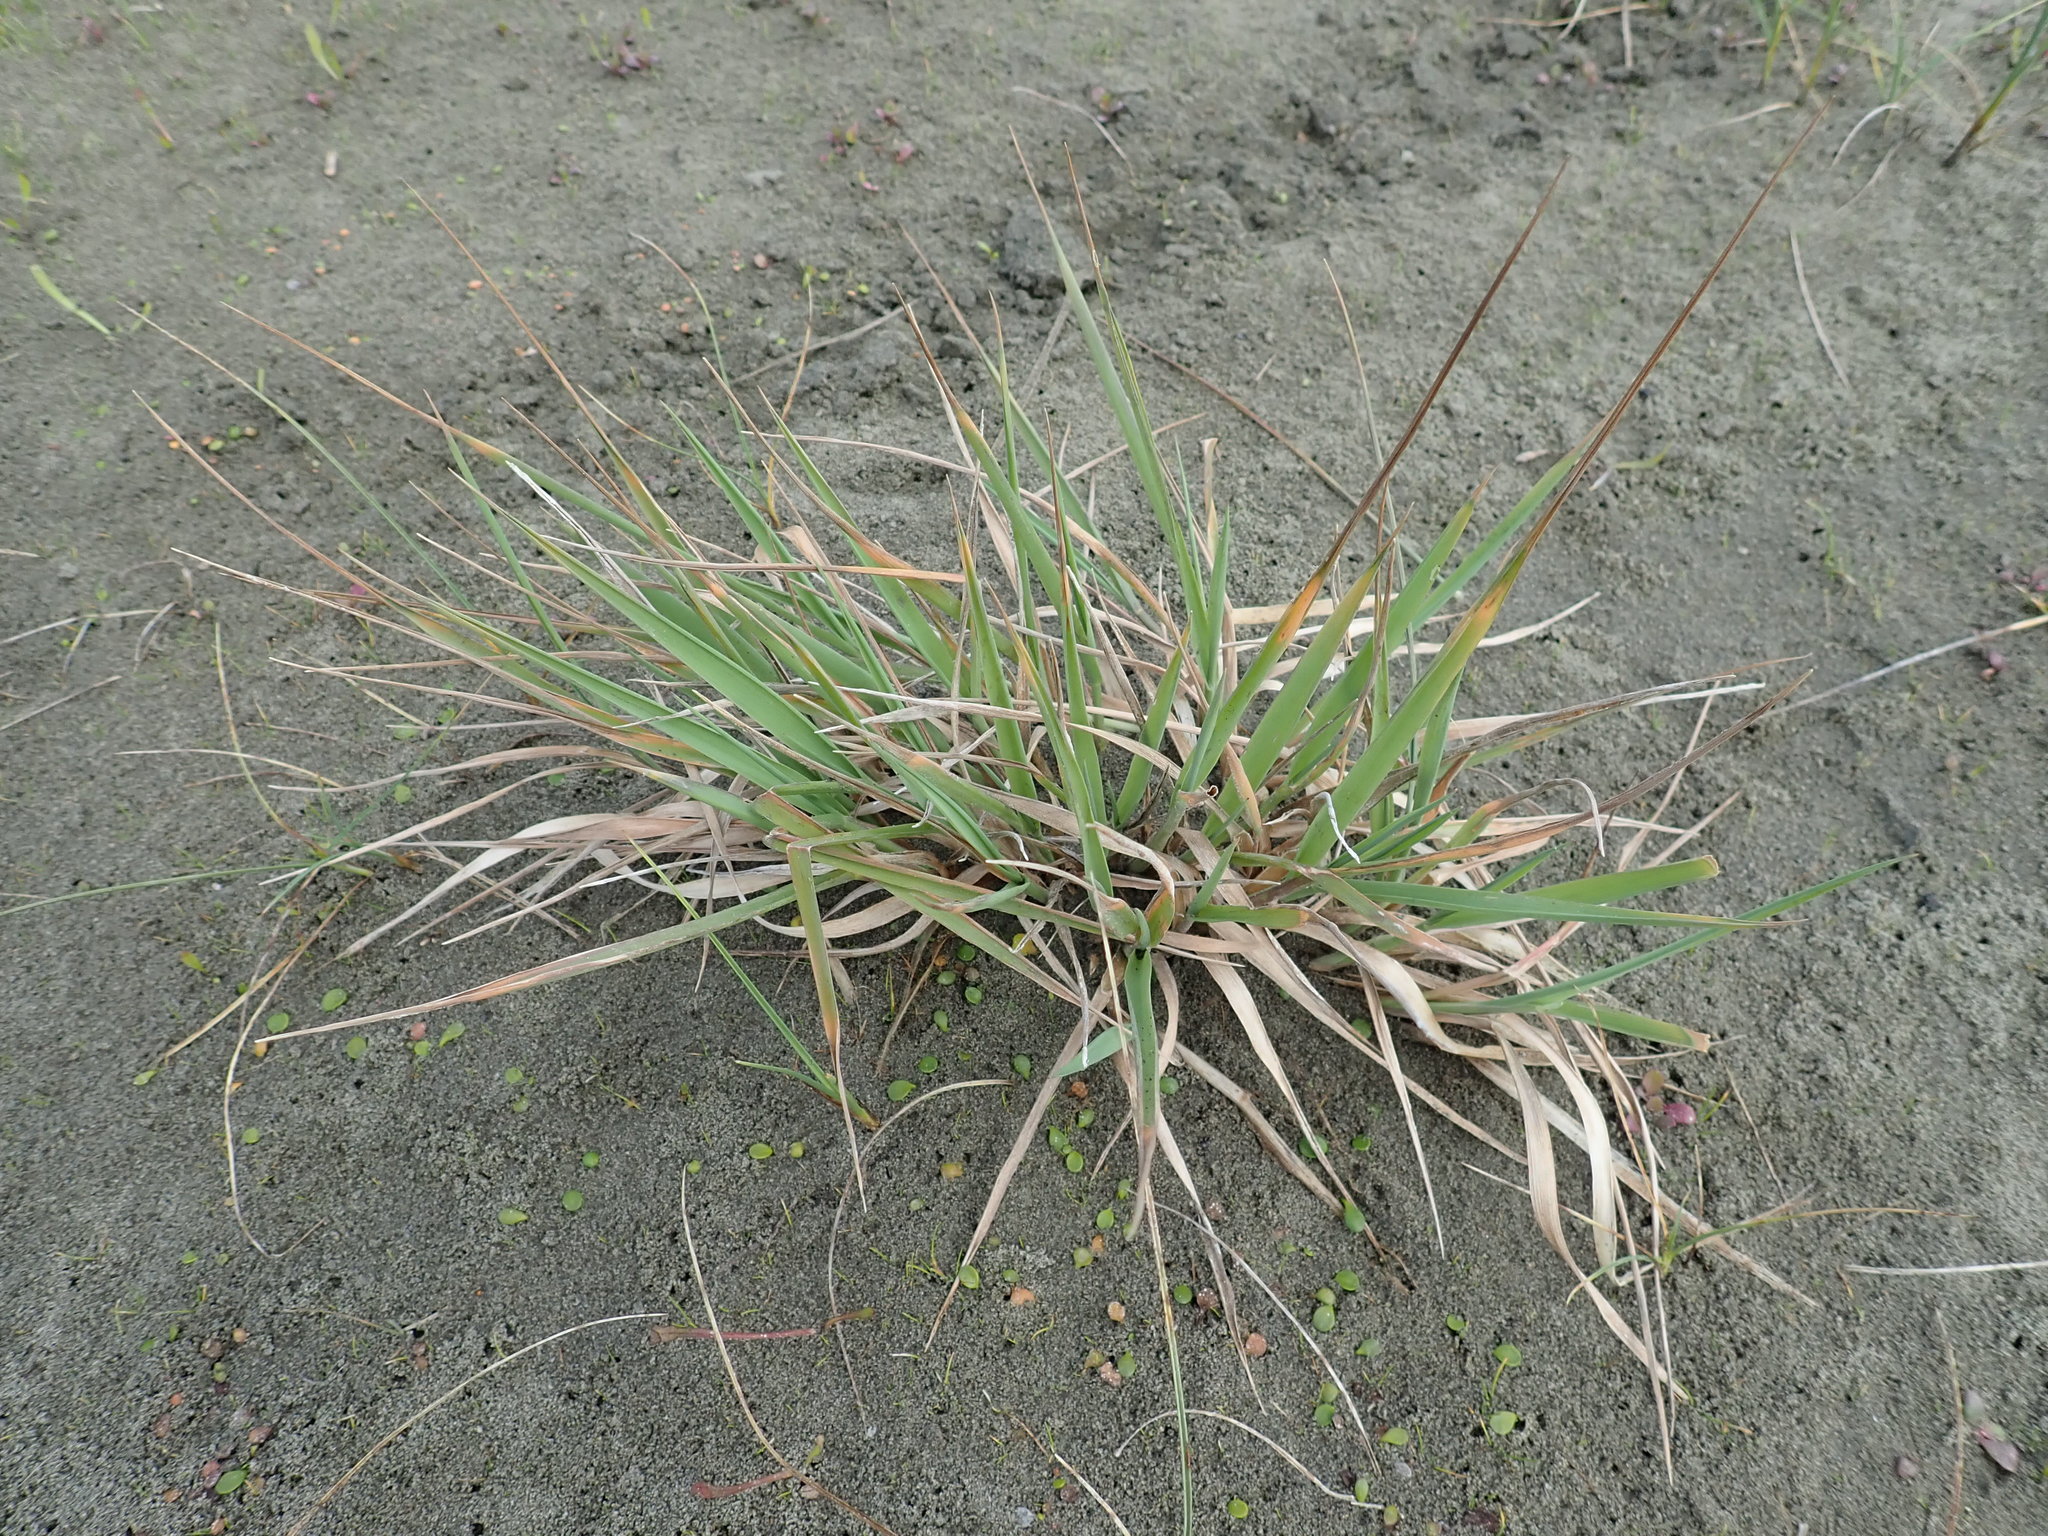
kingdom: Plantae
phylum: Tracheophyta
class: Liliopsida
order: Poales
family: Poaceae
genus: Lachnagrostis
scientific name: Lachnagrostis billardierei
